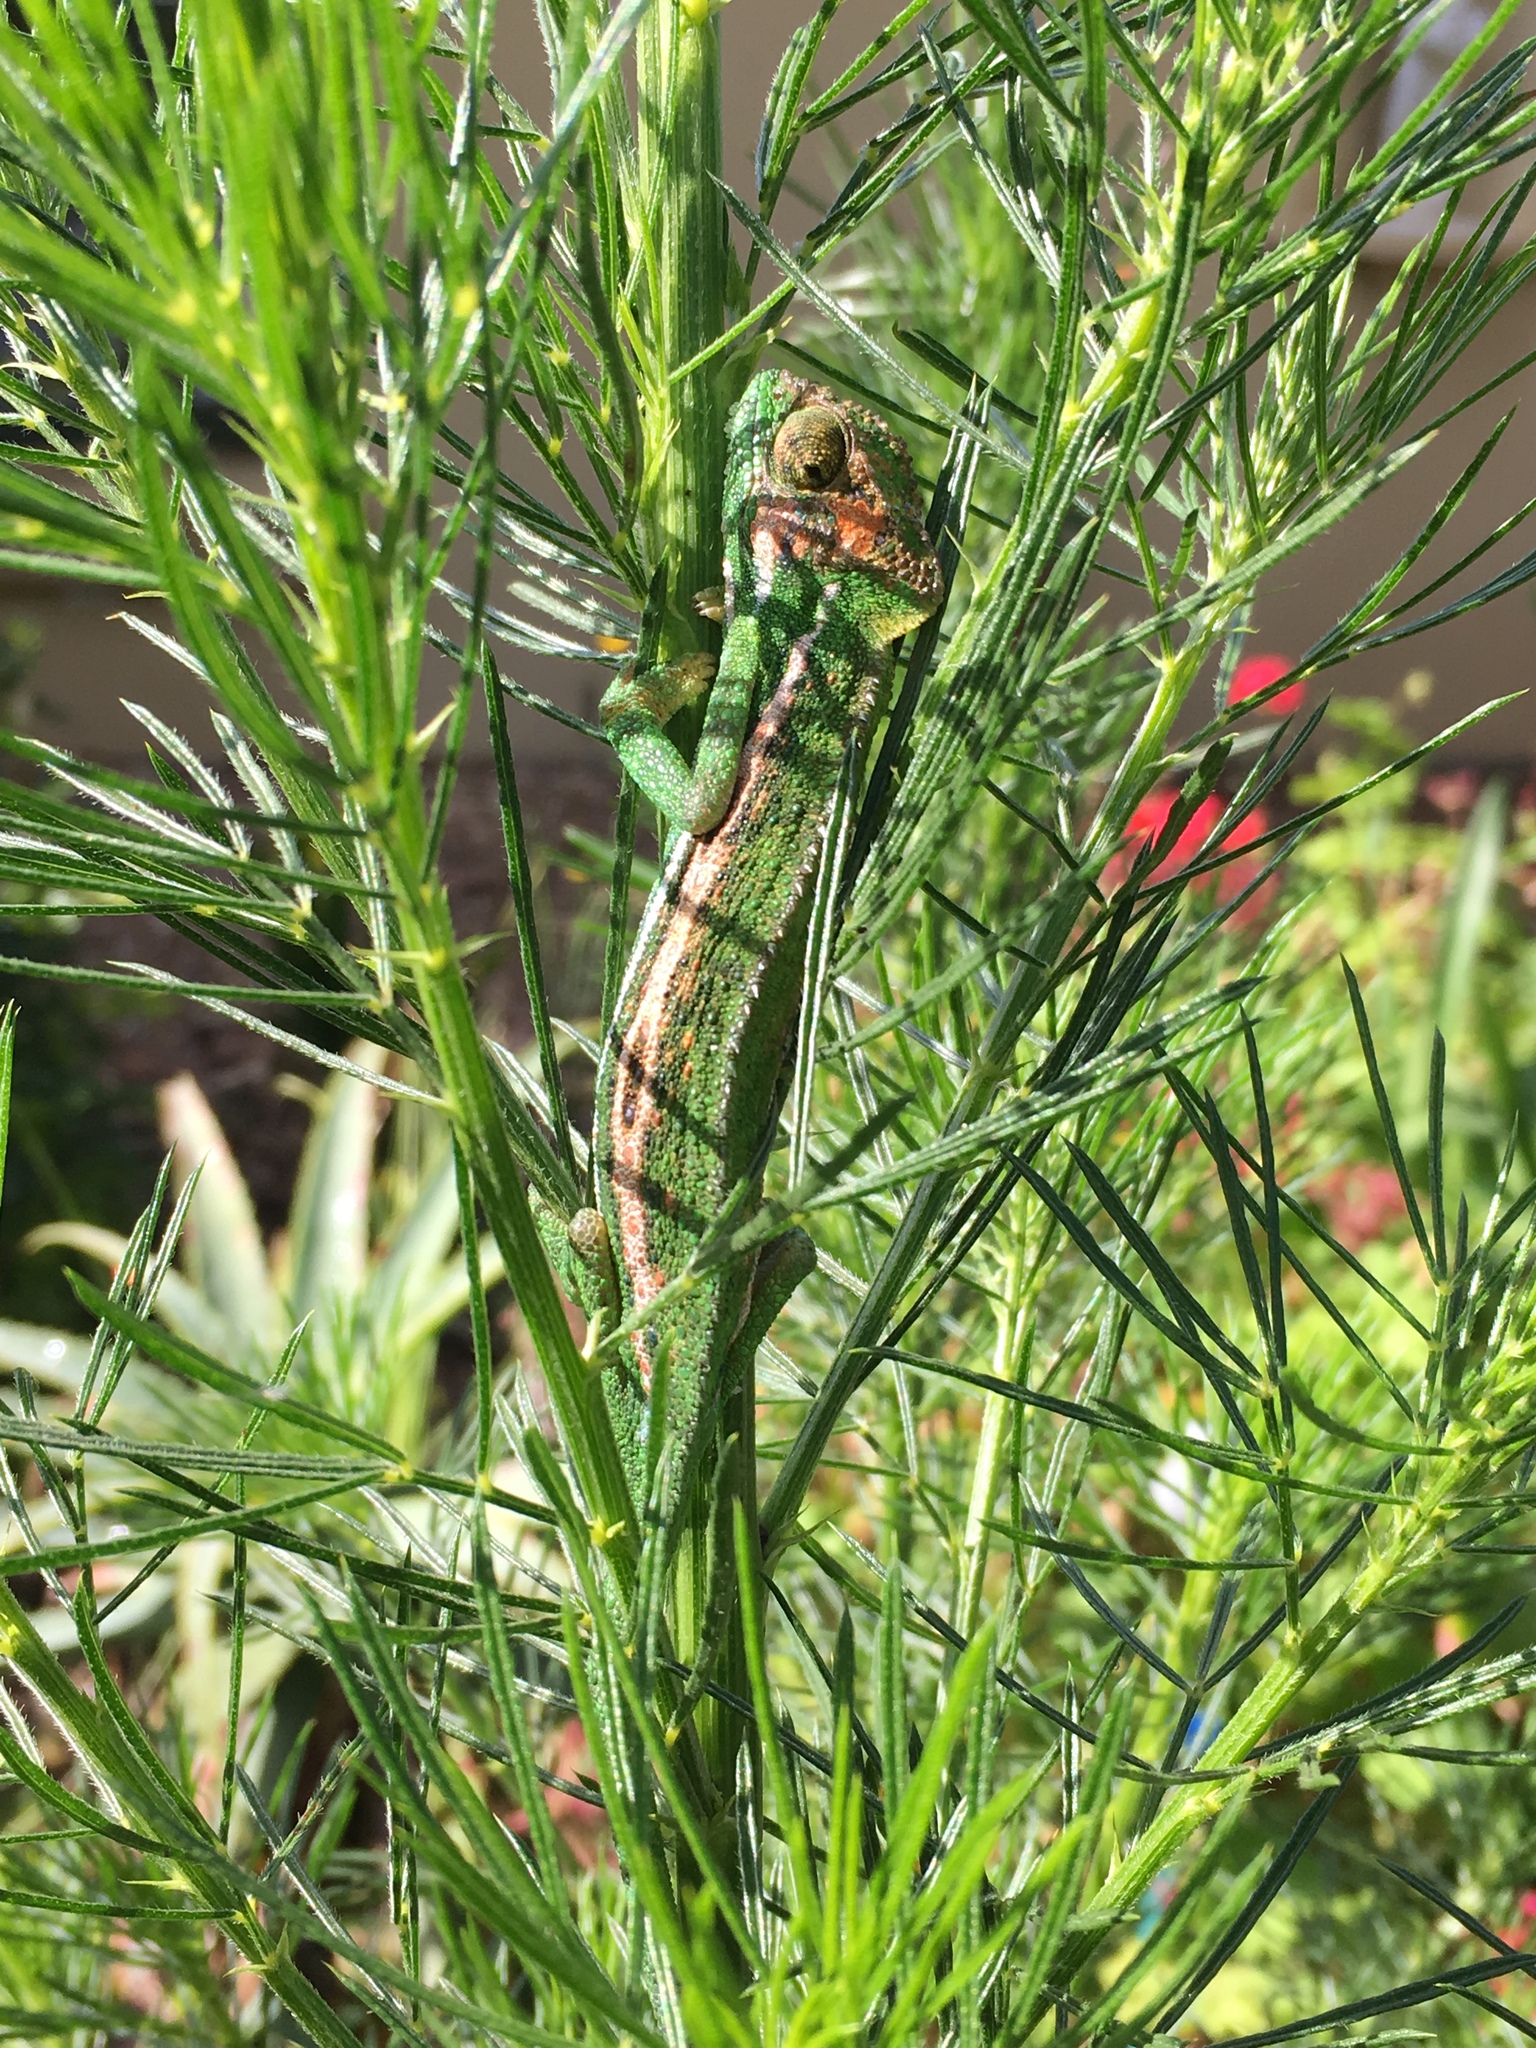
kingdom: Animalia
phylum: Chordata
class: Squamata
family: Chamaeleonidae
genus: Bradypodion
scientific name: Bradypodion pumilum
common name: Cape dwarf chameleon
